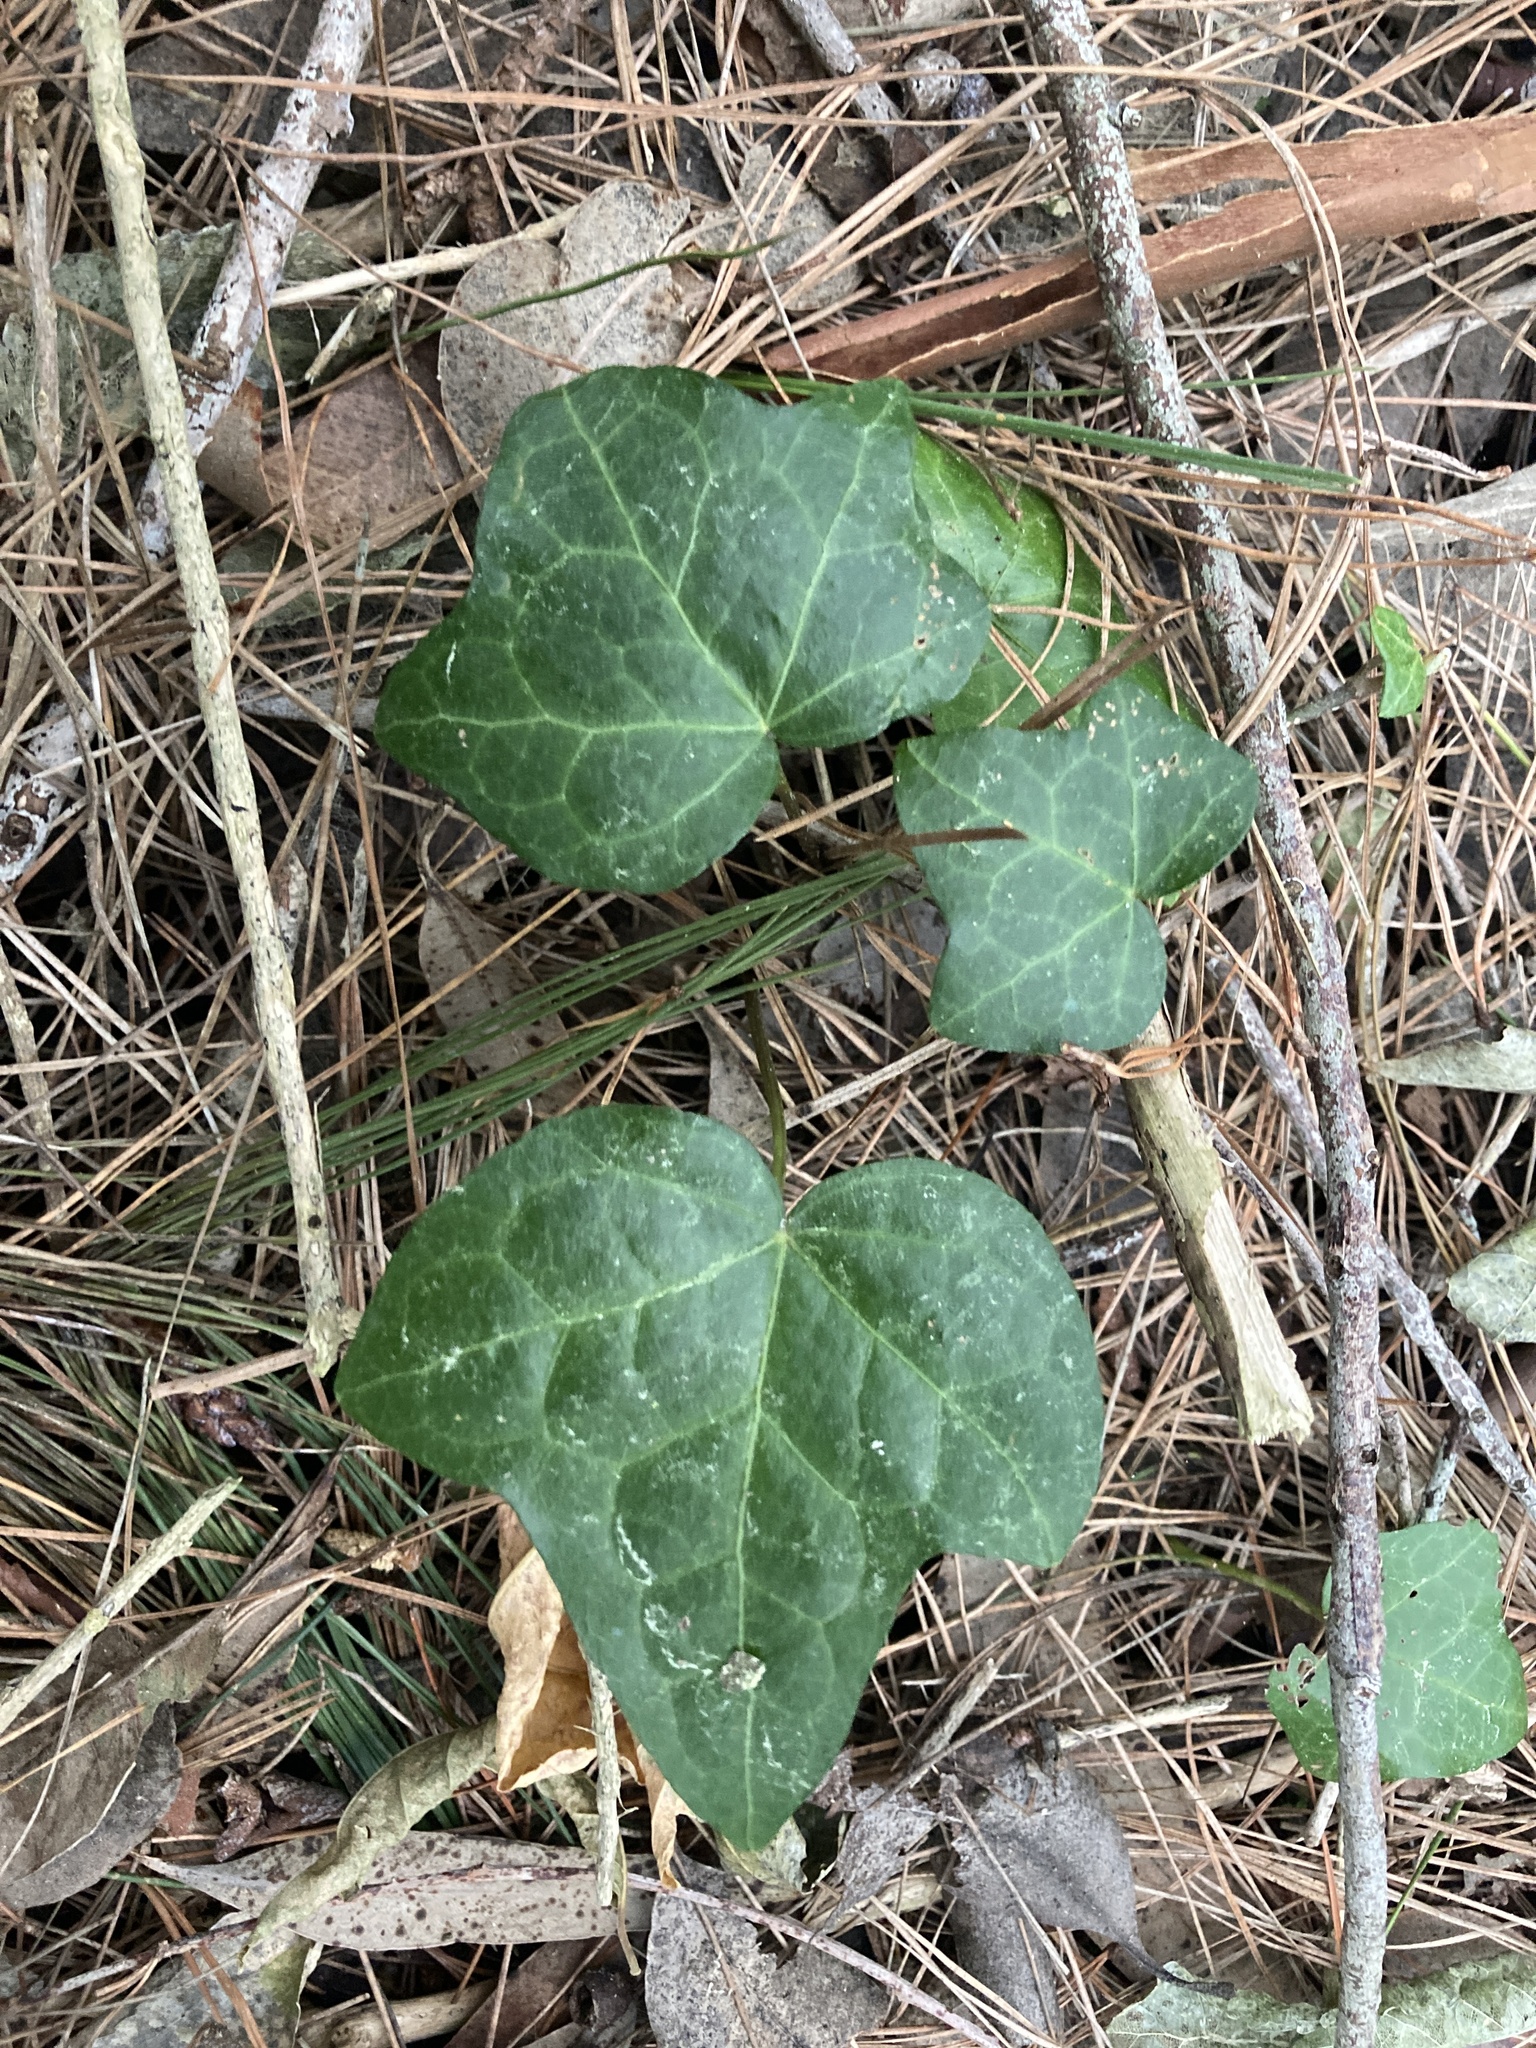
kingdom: Plantae
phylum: Tracheophyta
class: Magnoliopsida
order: Apiales
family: Araliaceae
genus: Hedera
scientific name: Hedera helix
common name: Ivy
